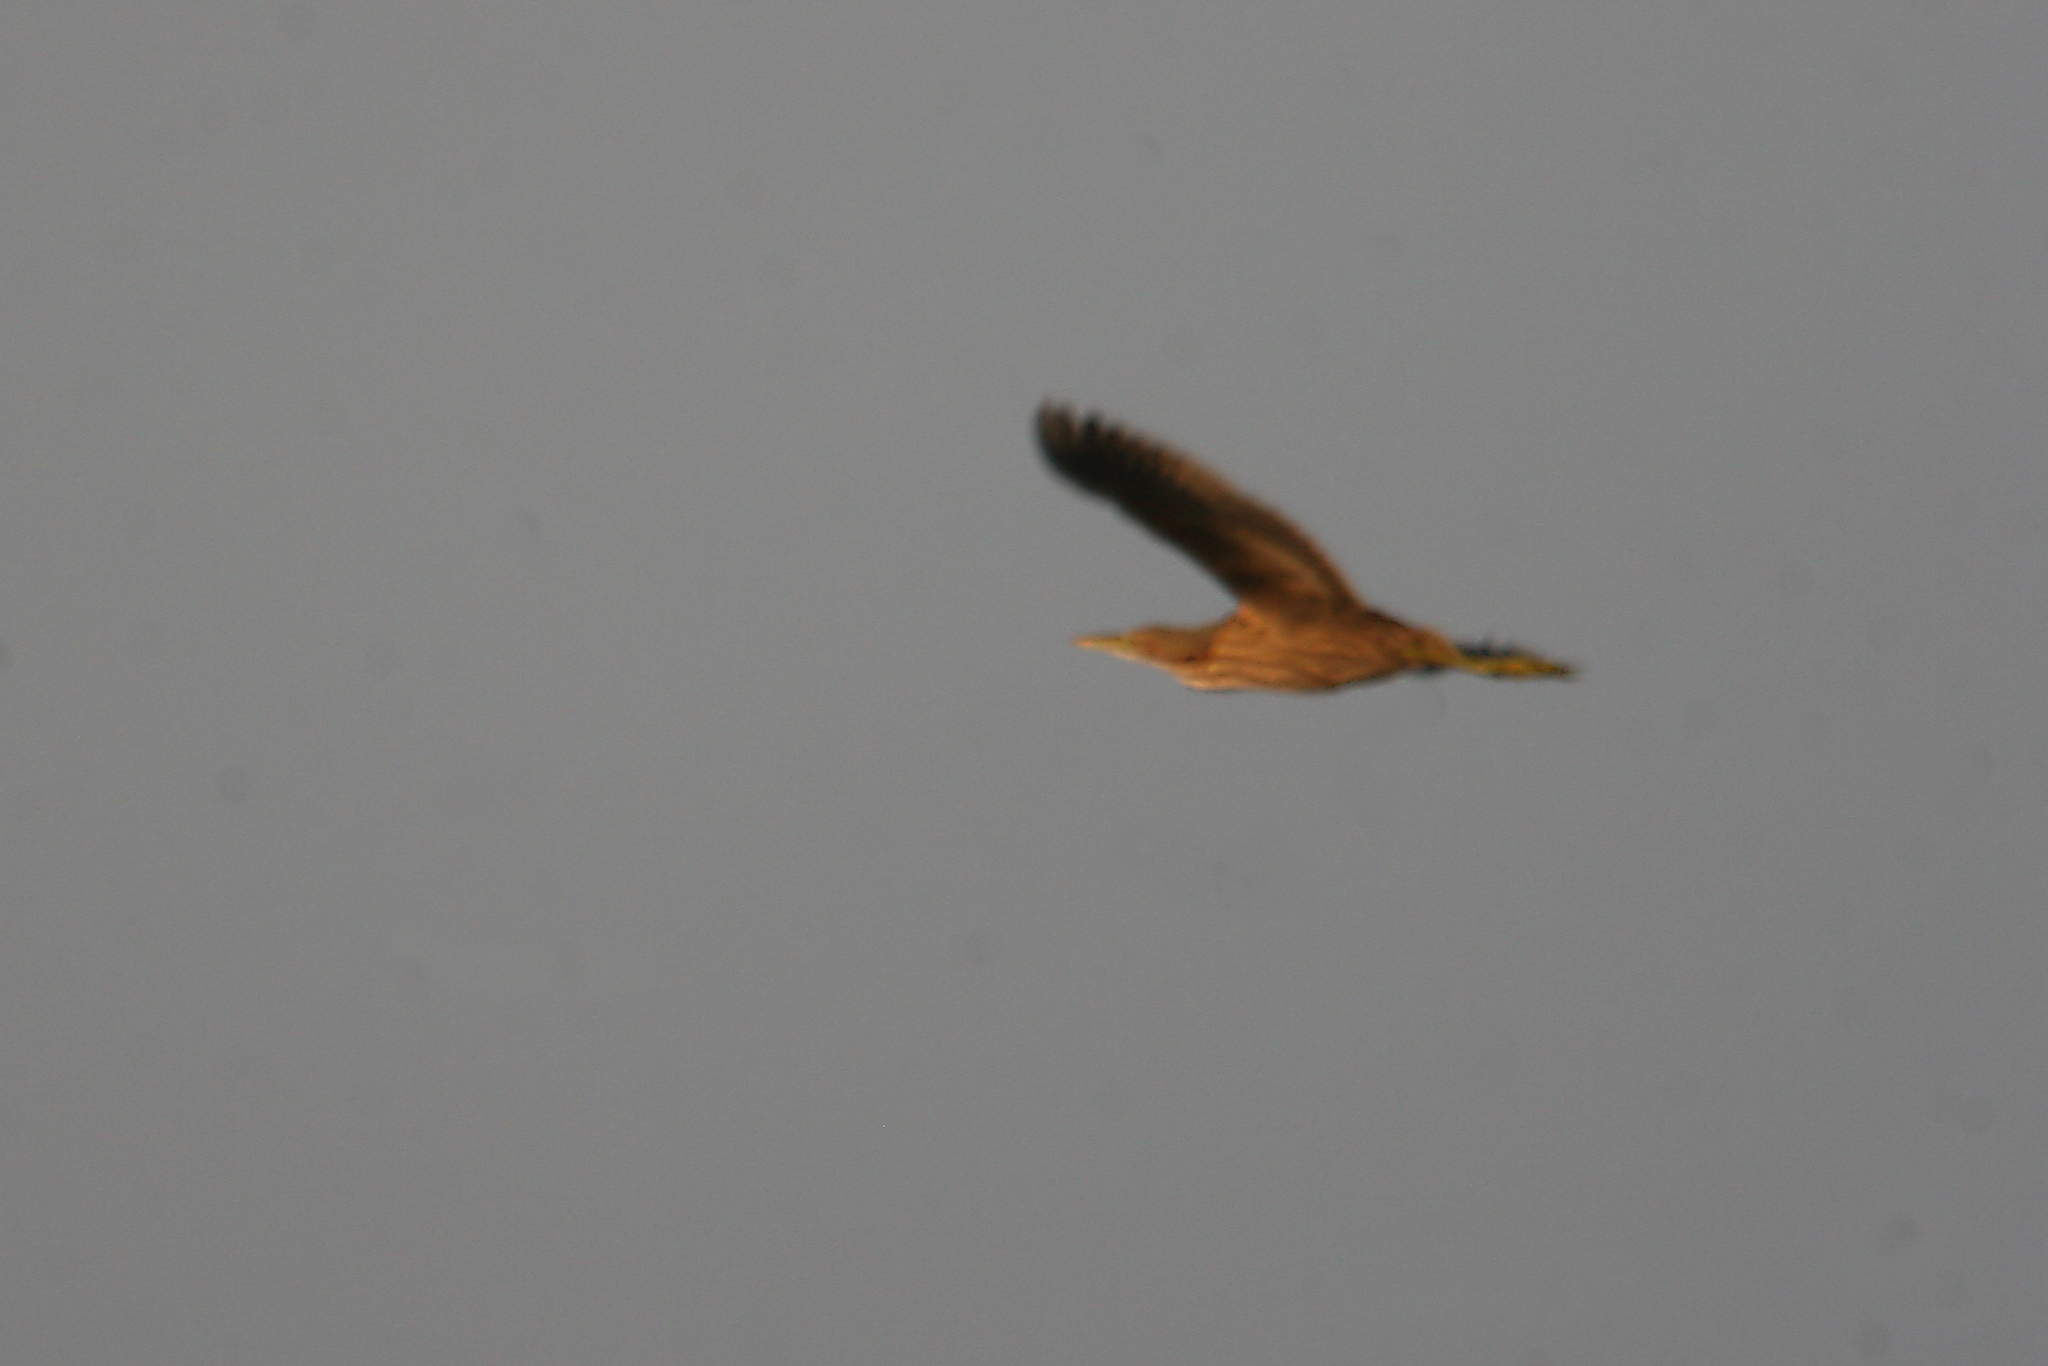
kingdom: Animalia
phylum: Chordata
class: Aves
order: Pelecaniformes
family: Ardeidae
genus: Botaurus
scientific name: Botaurus lentiginosus
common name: American bittern
